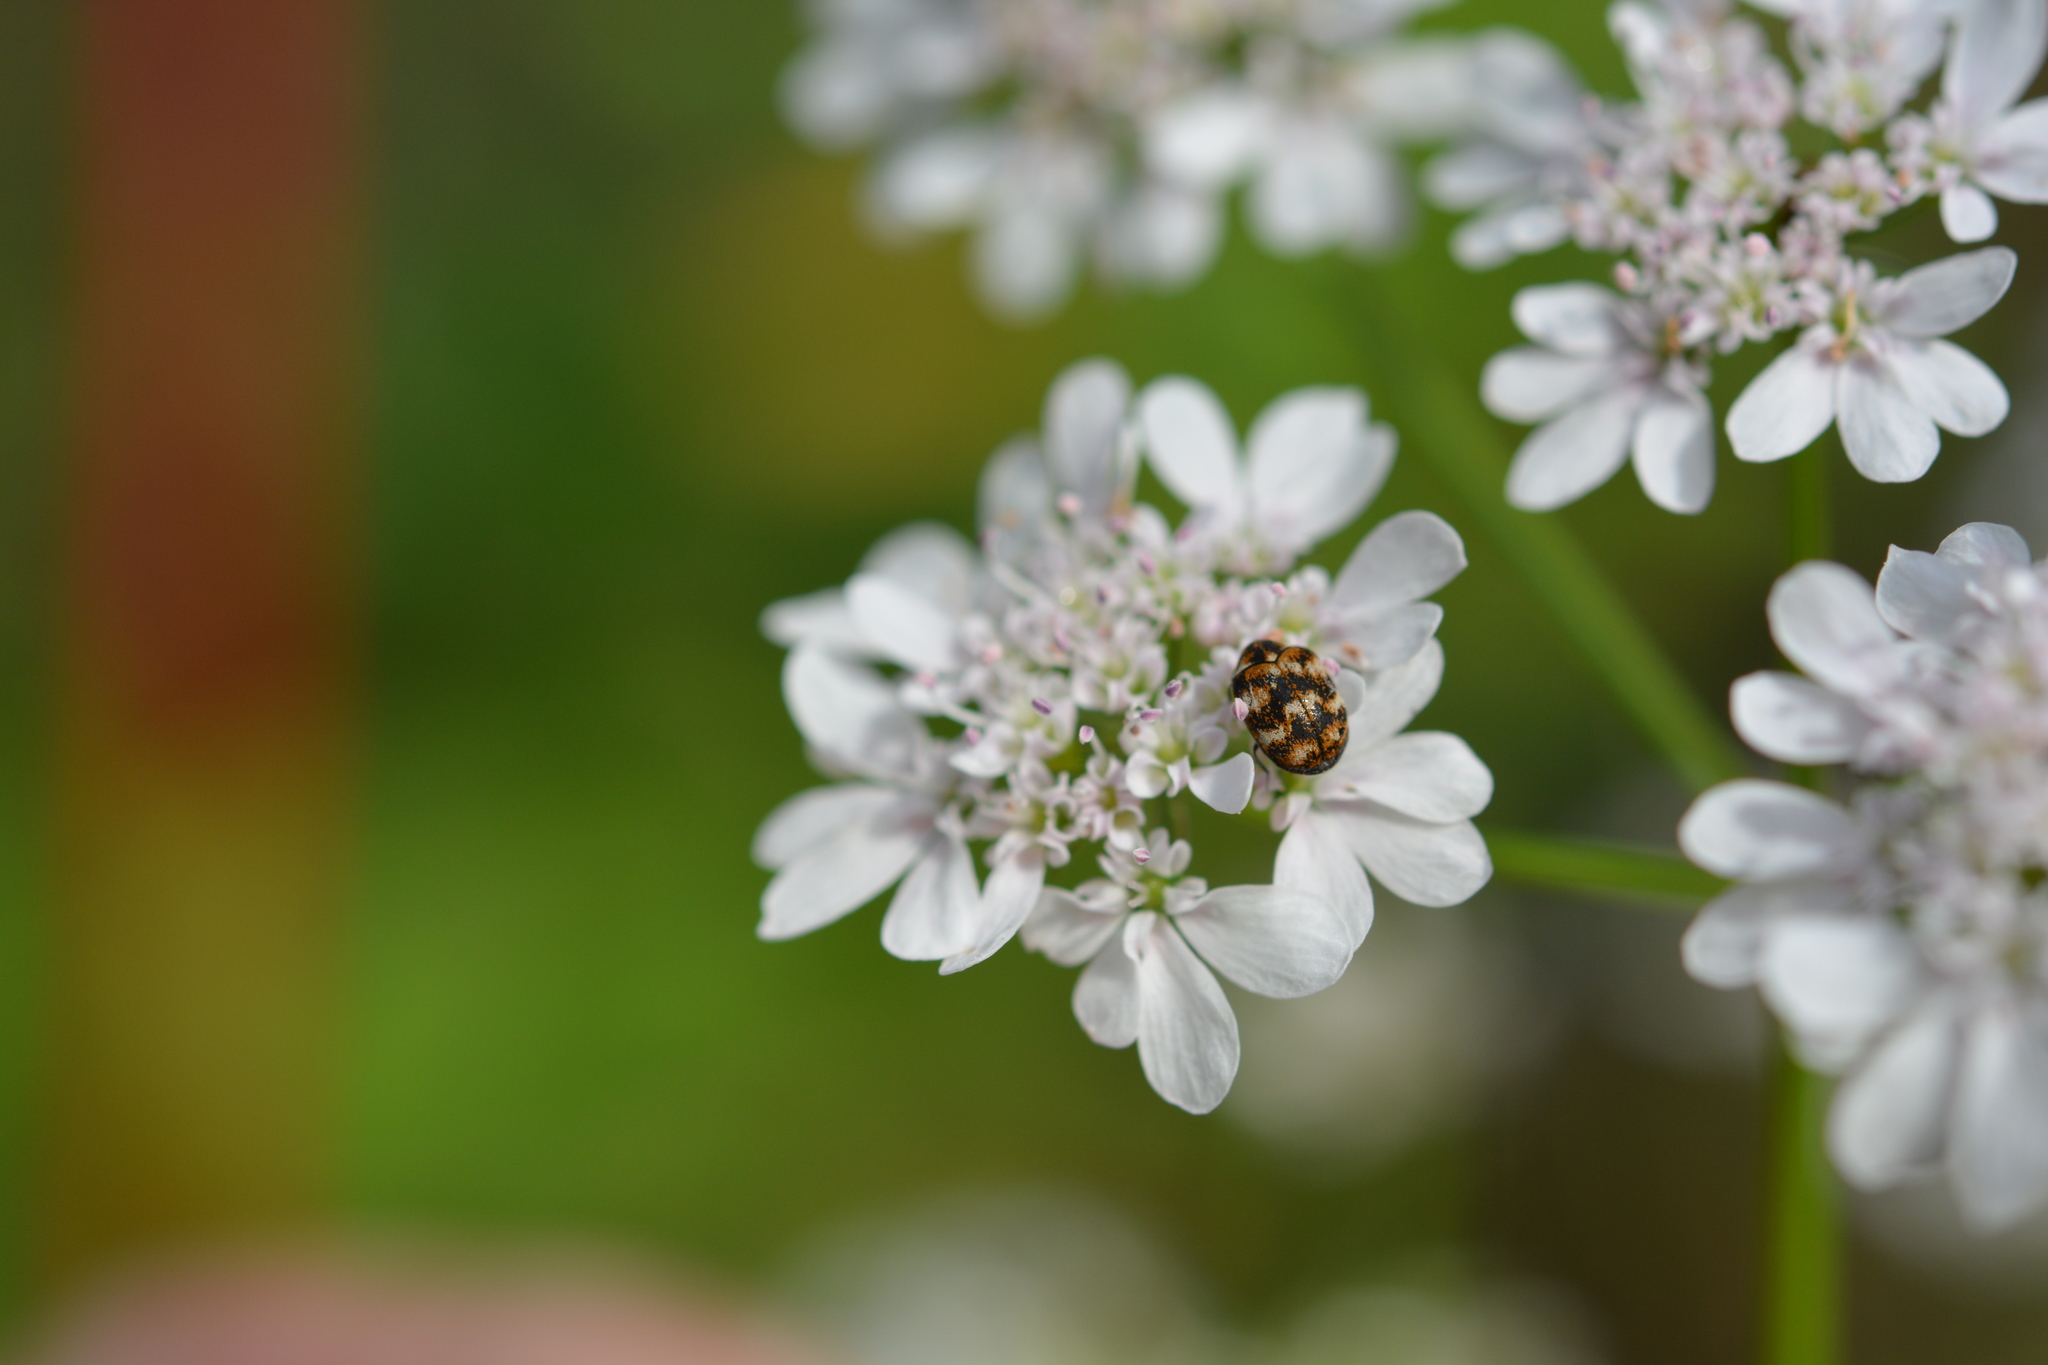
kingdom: Animalia
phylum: Arthropoda
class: Insecta
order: Coleoptera
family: Dermestidae
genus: Anthrenus
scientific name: Anthrenus verbasci
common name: Varied carpet beetle
